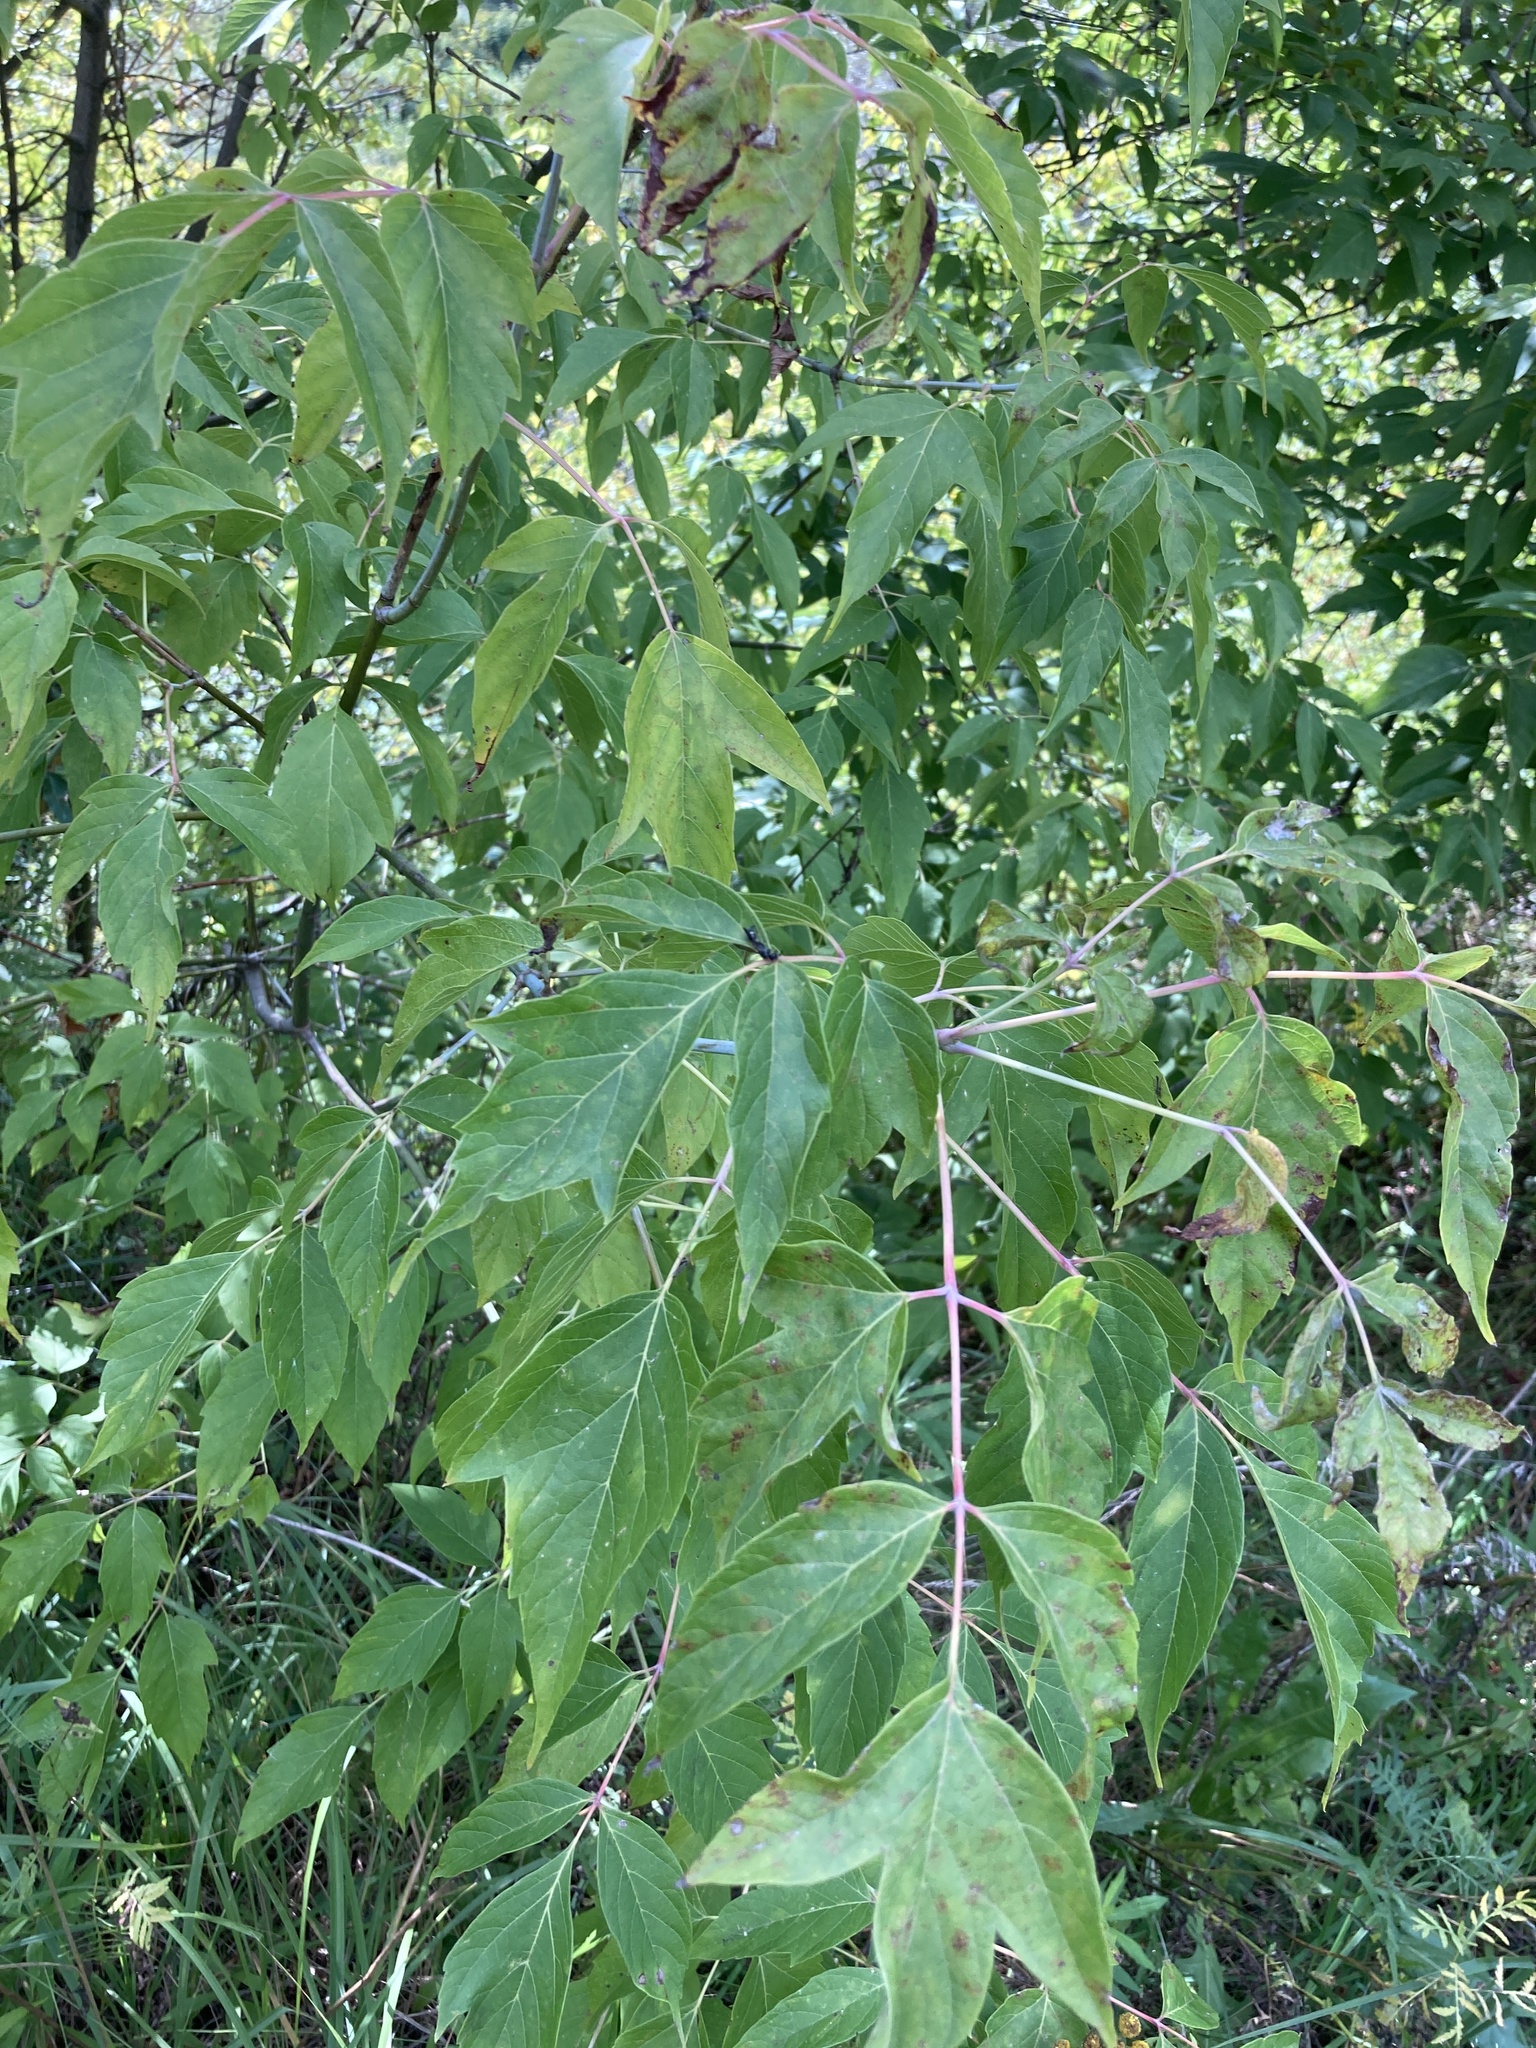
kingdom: Plantae
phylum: Tracheophyta
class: Magnoliopsida
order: Sapindales
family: Sapindaceae
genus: Acer
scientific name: Acer negundo
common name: Ashleaf maple
